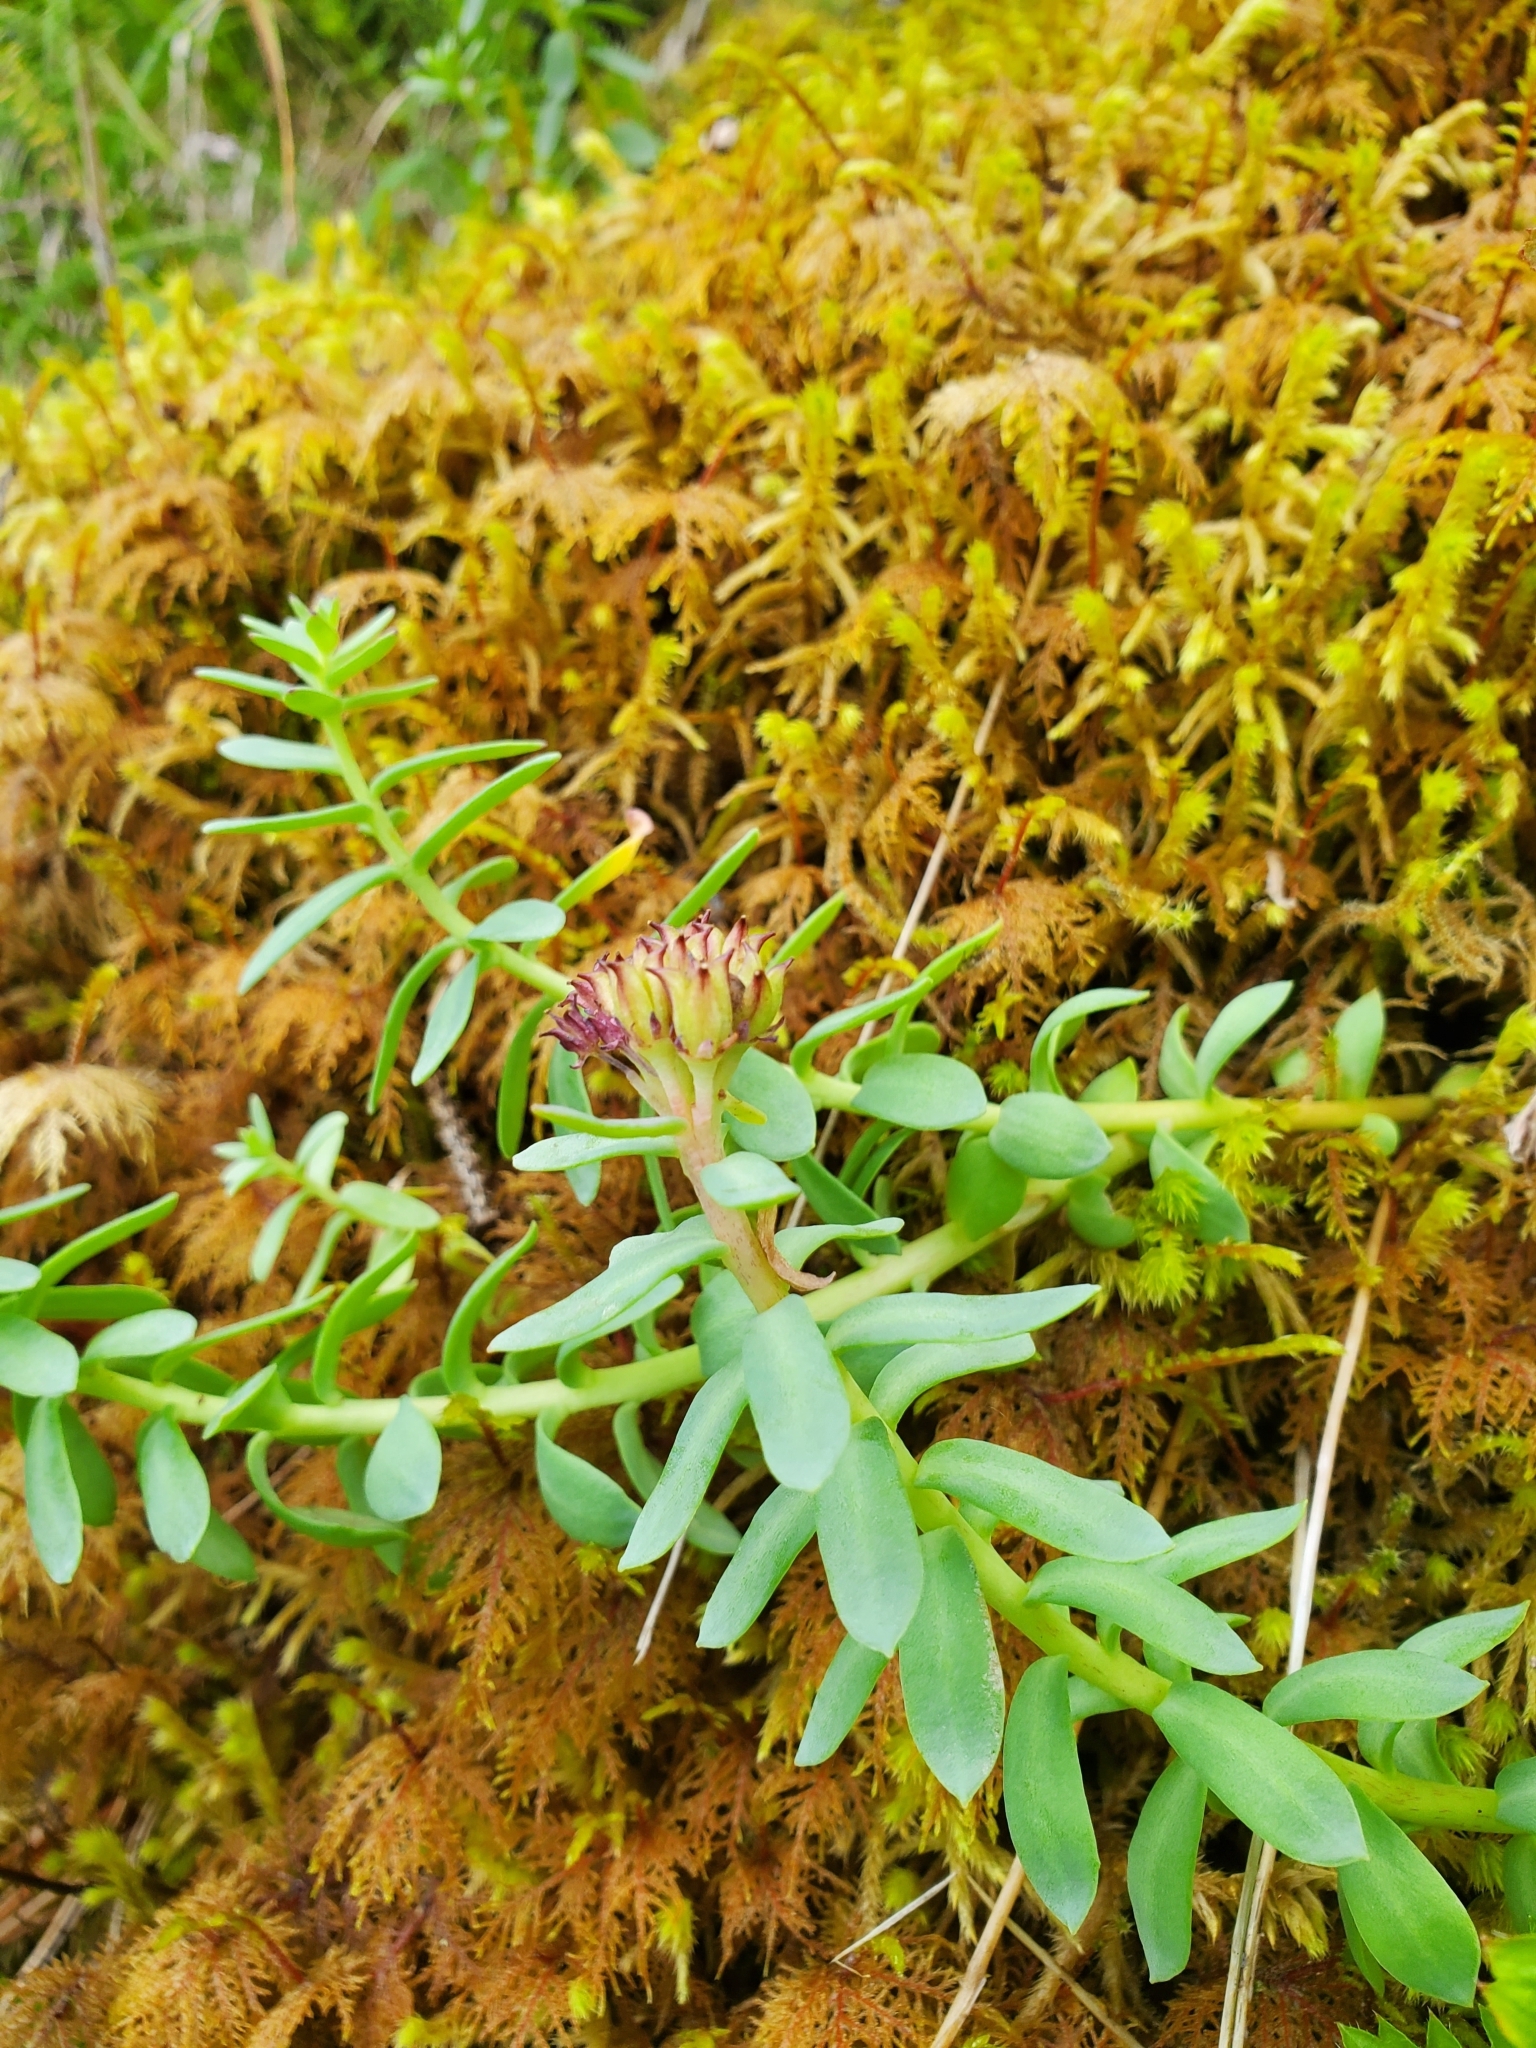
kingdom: Plantae
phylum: Tracheophyta
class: Magnoliopsida
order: Saxifragales
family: Crassulaceae
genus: Rhodiola
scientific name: Rhodiola integrifolia
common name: Western roseroot
